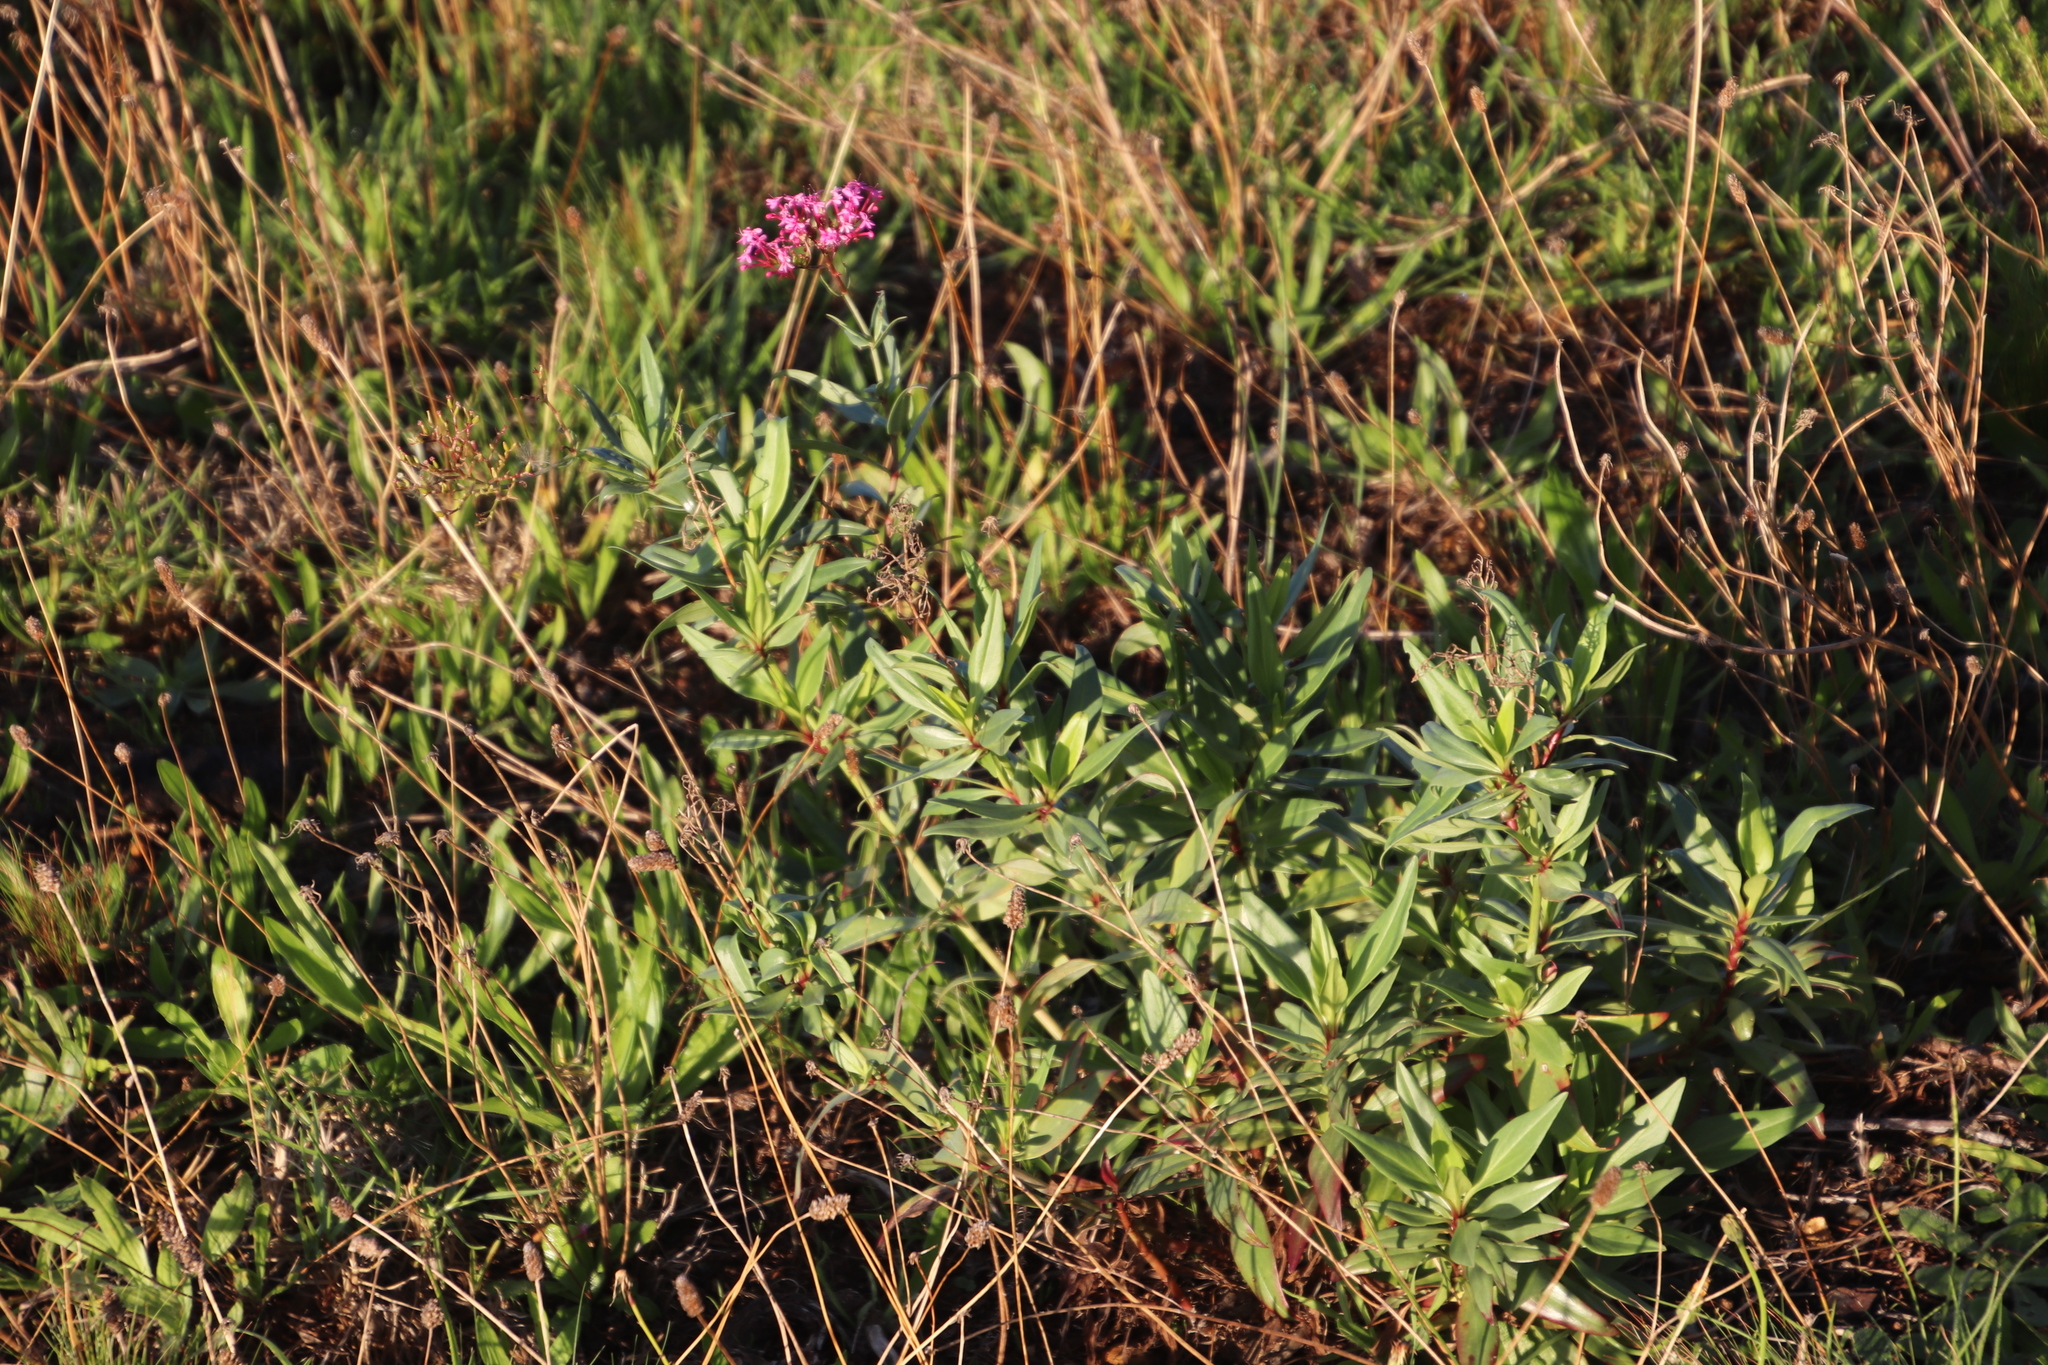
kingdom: Plantae
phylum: Tracheophyta
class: Magnoliopsida
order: Dipsacales
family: Caprifoliaceae
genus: Centranthus
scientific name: Centranthus ruber
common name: Red valerian
